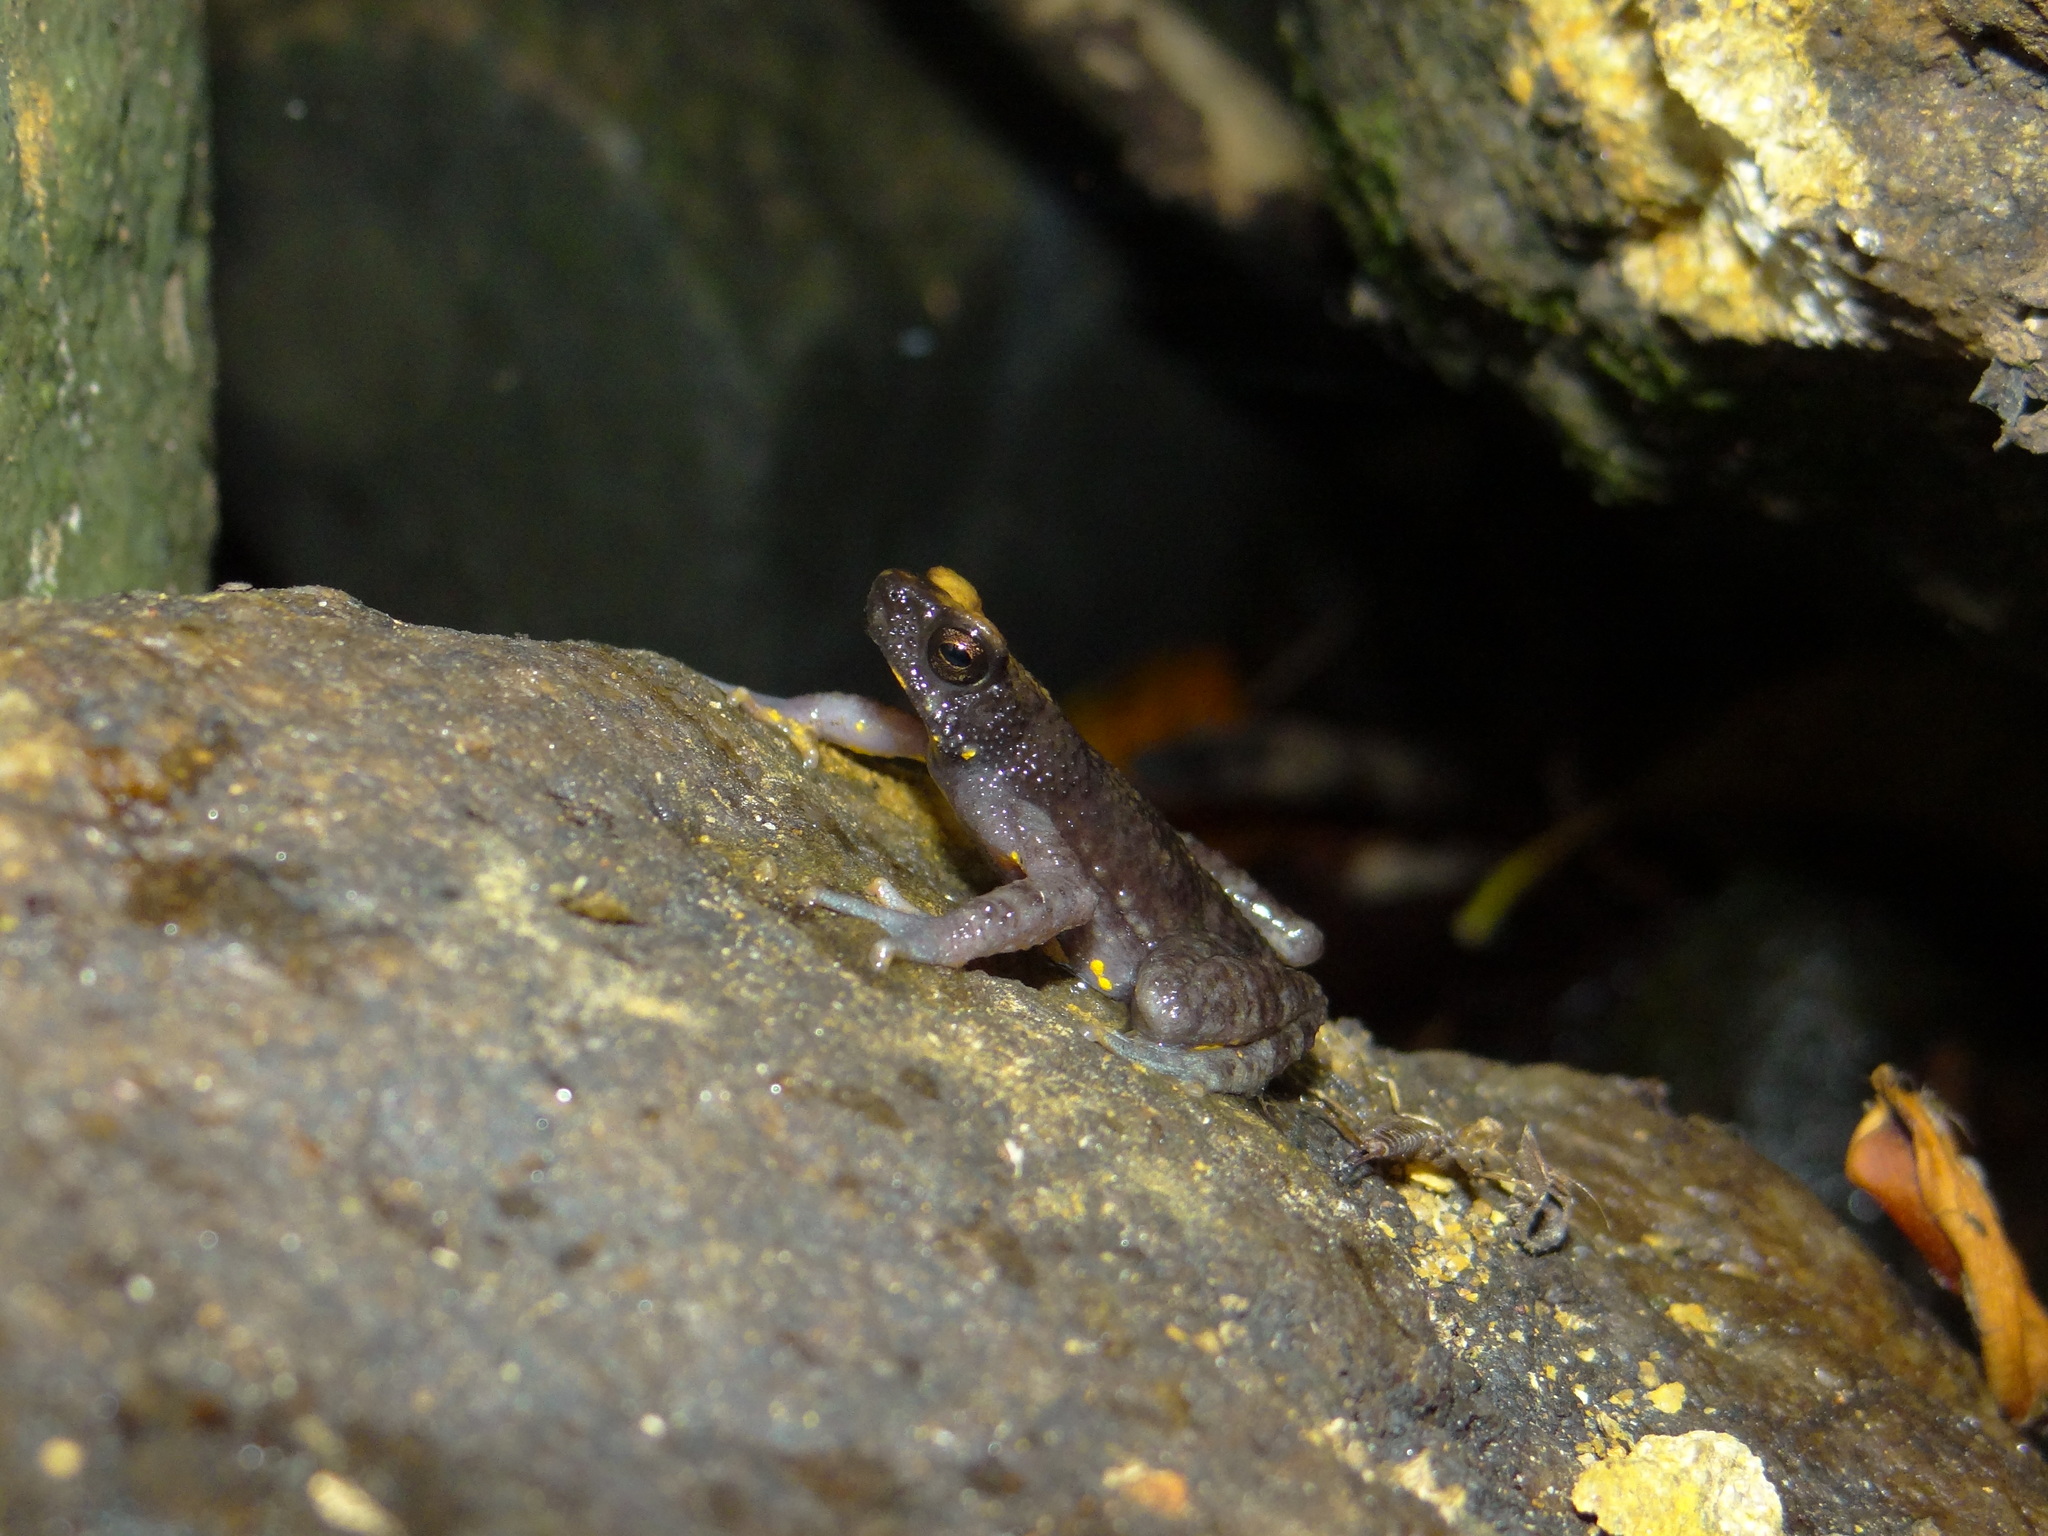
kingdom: Animalia
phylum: Chordata
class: Amphibia
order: Anura
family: Bufonidae
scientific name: Bufonidae
